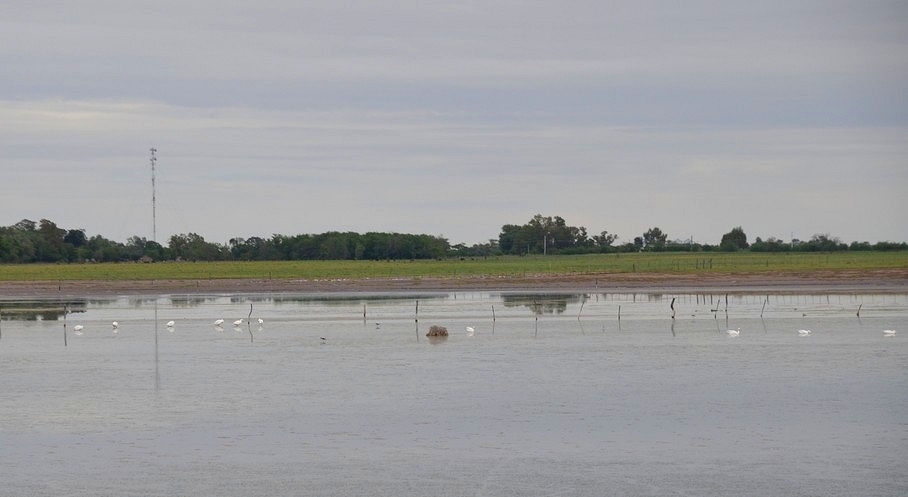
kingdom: Animalia
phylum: Chordata
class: Aves
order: Anseriformes
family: Anatidae
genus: Coscoroba
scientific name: Coscoroba coscoroba
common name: Coscoroba swan
